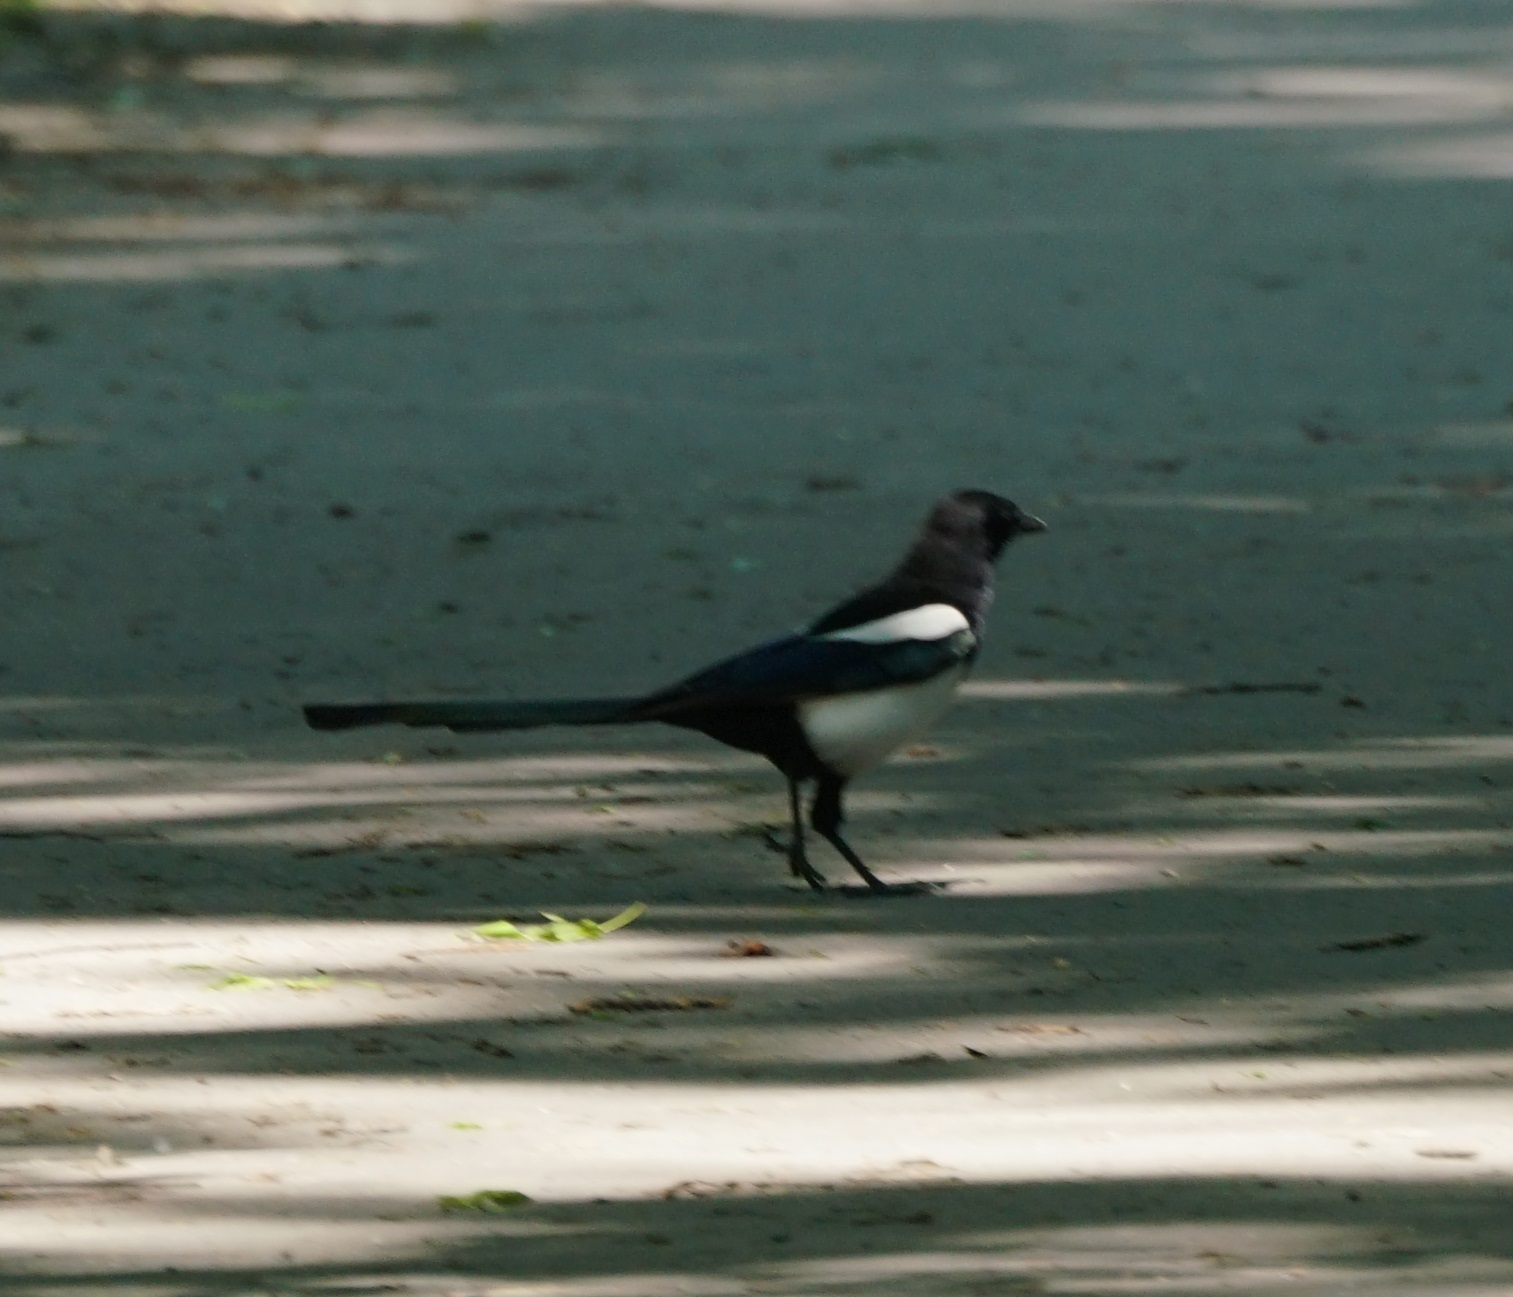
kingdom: Animalia
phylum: Chordata
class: Aves
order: Passeriformes
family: Corvidae
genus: Pica
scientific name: Pica pica
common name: Eurasian magpie
